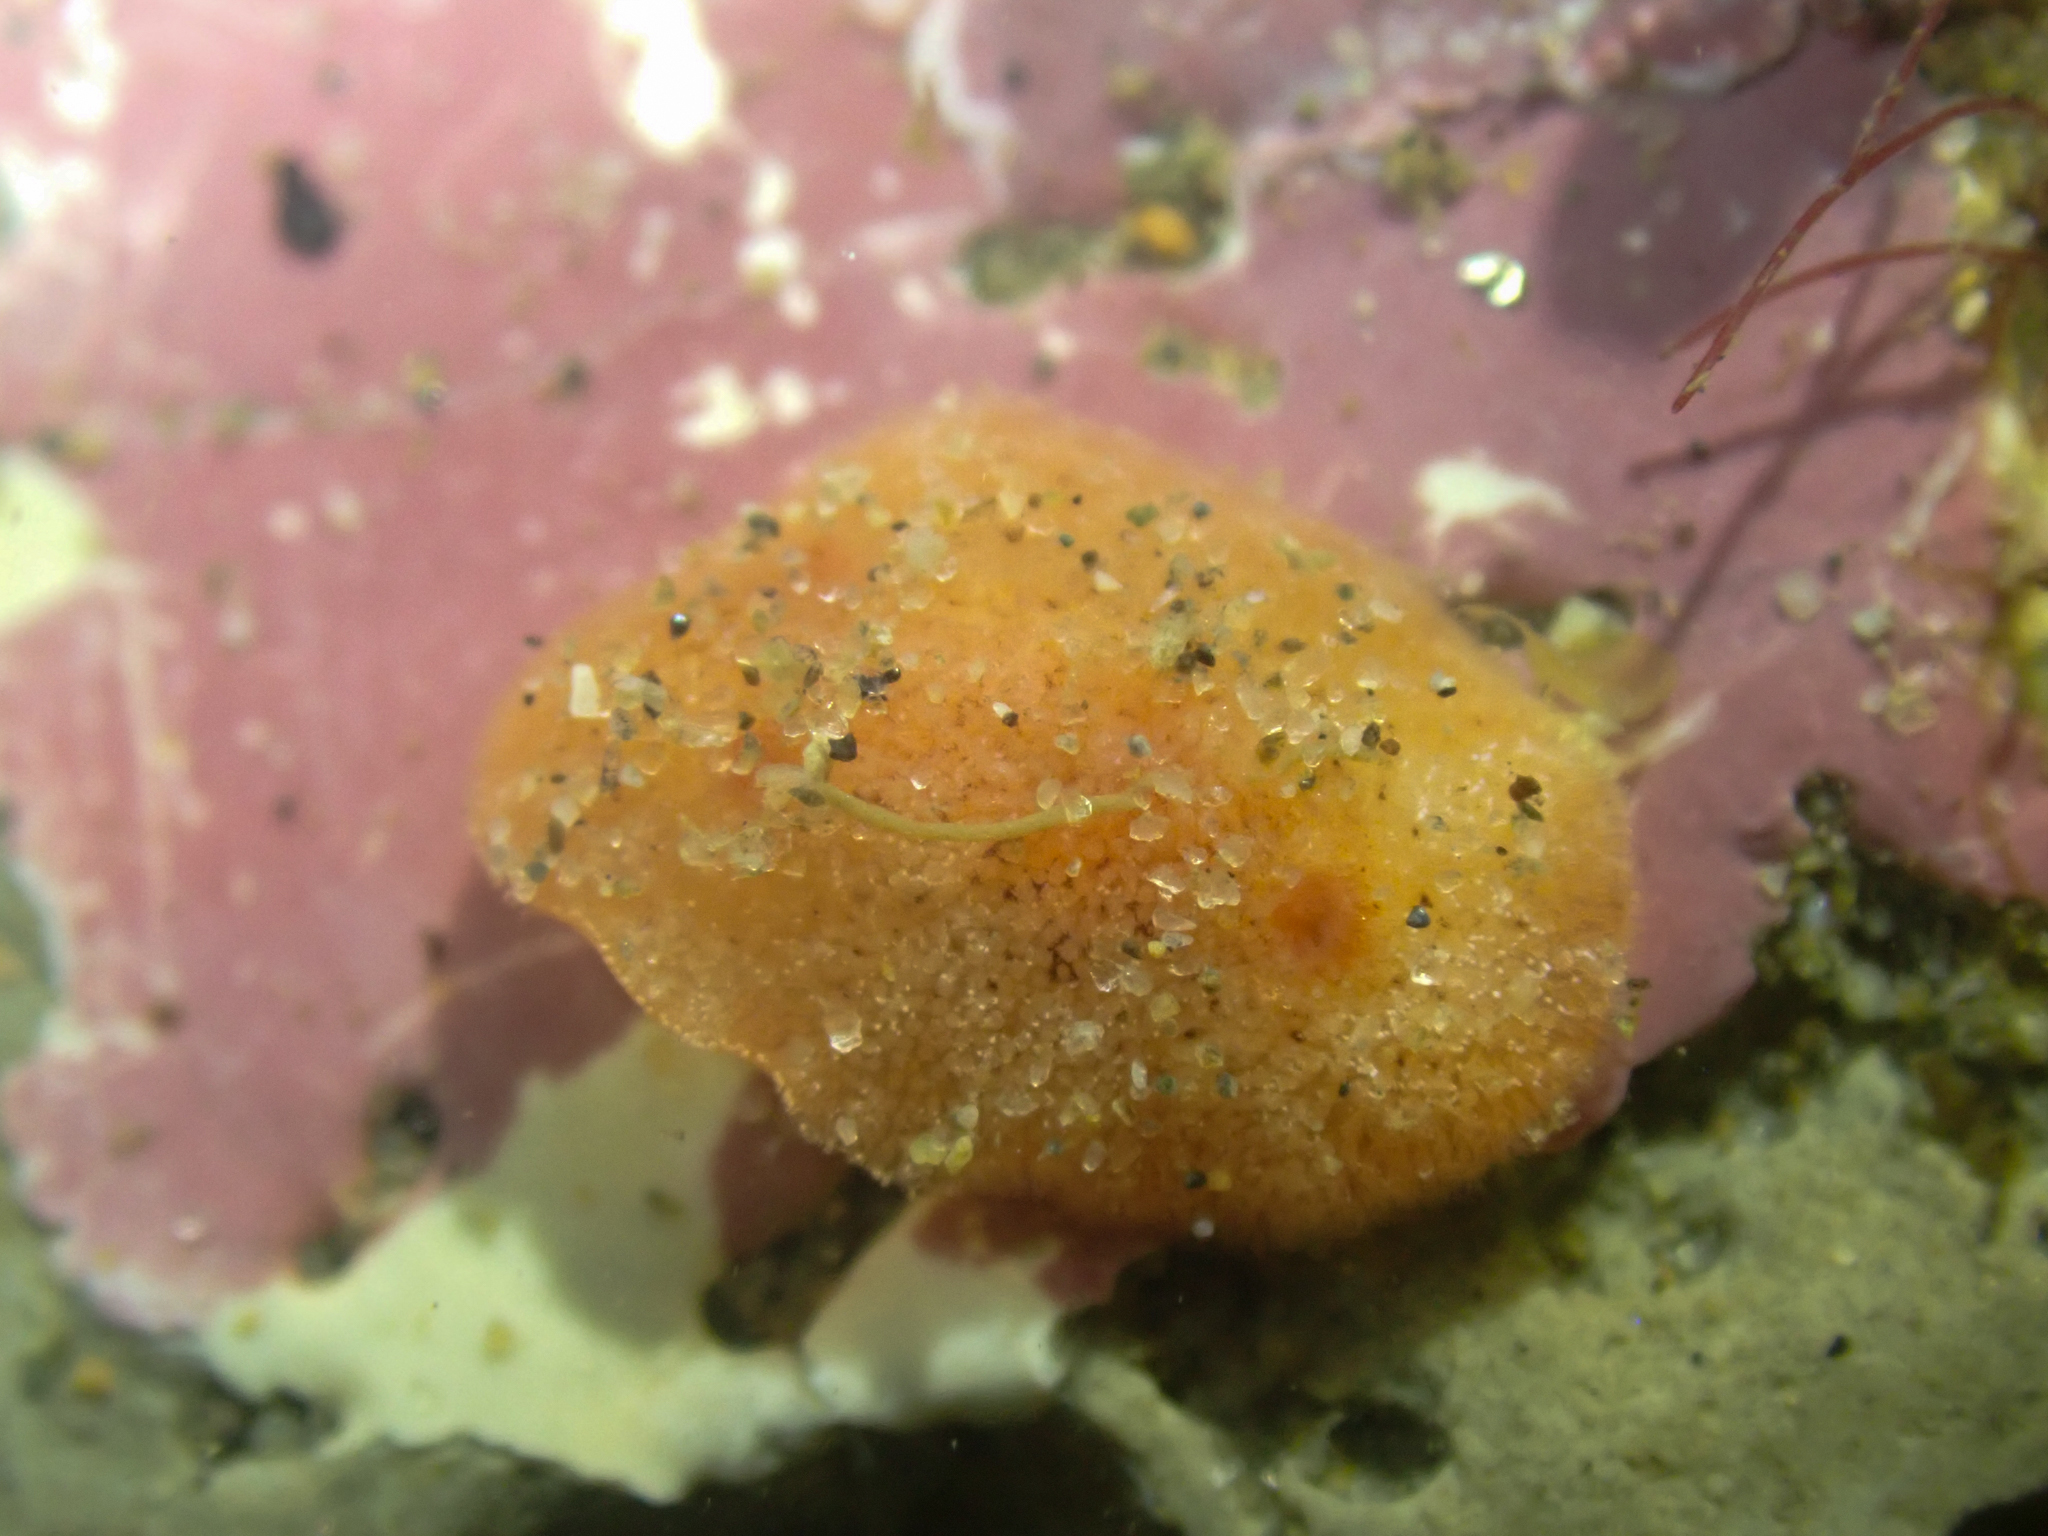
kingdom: Animalia
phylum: Mollusca
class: Gastropoda
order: Nudibranchia
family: Discodorididae
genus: Rostanga
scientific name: Rostanga pulchra
